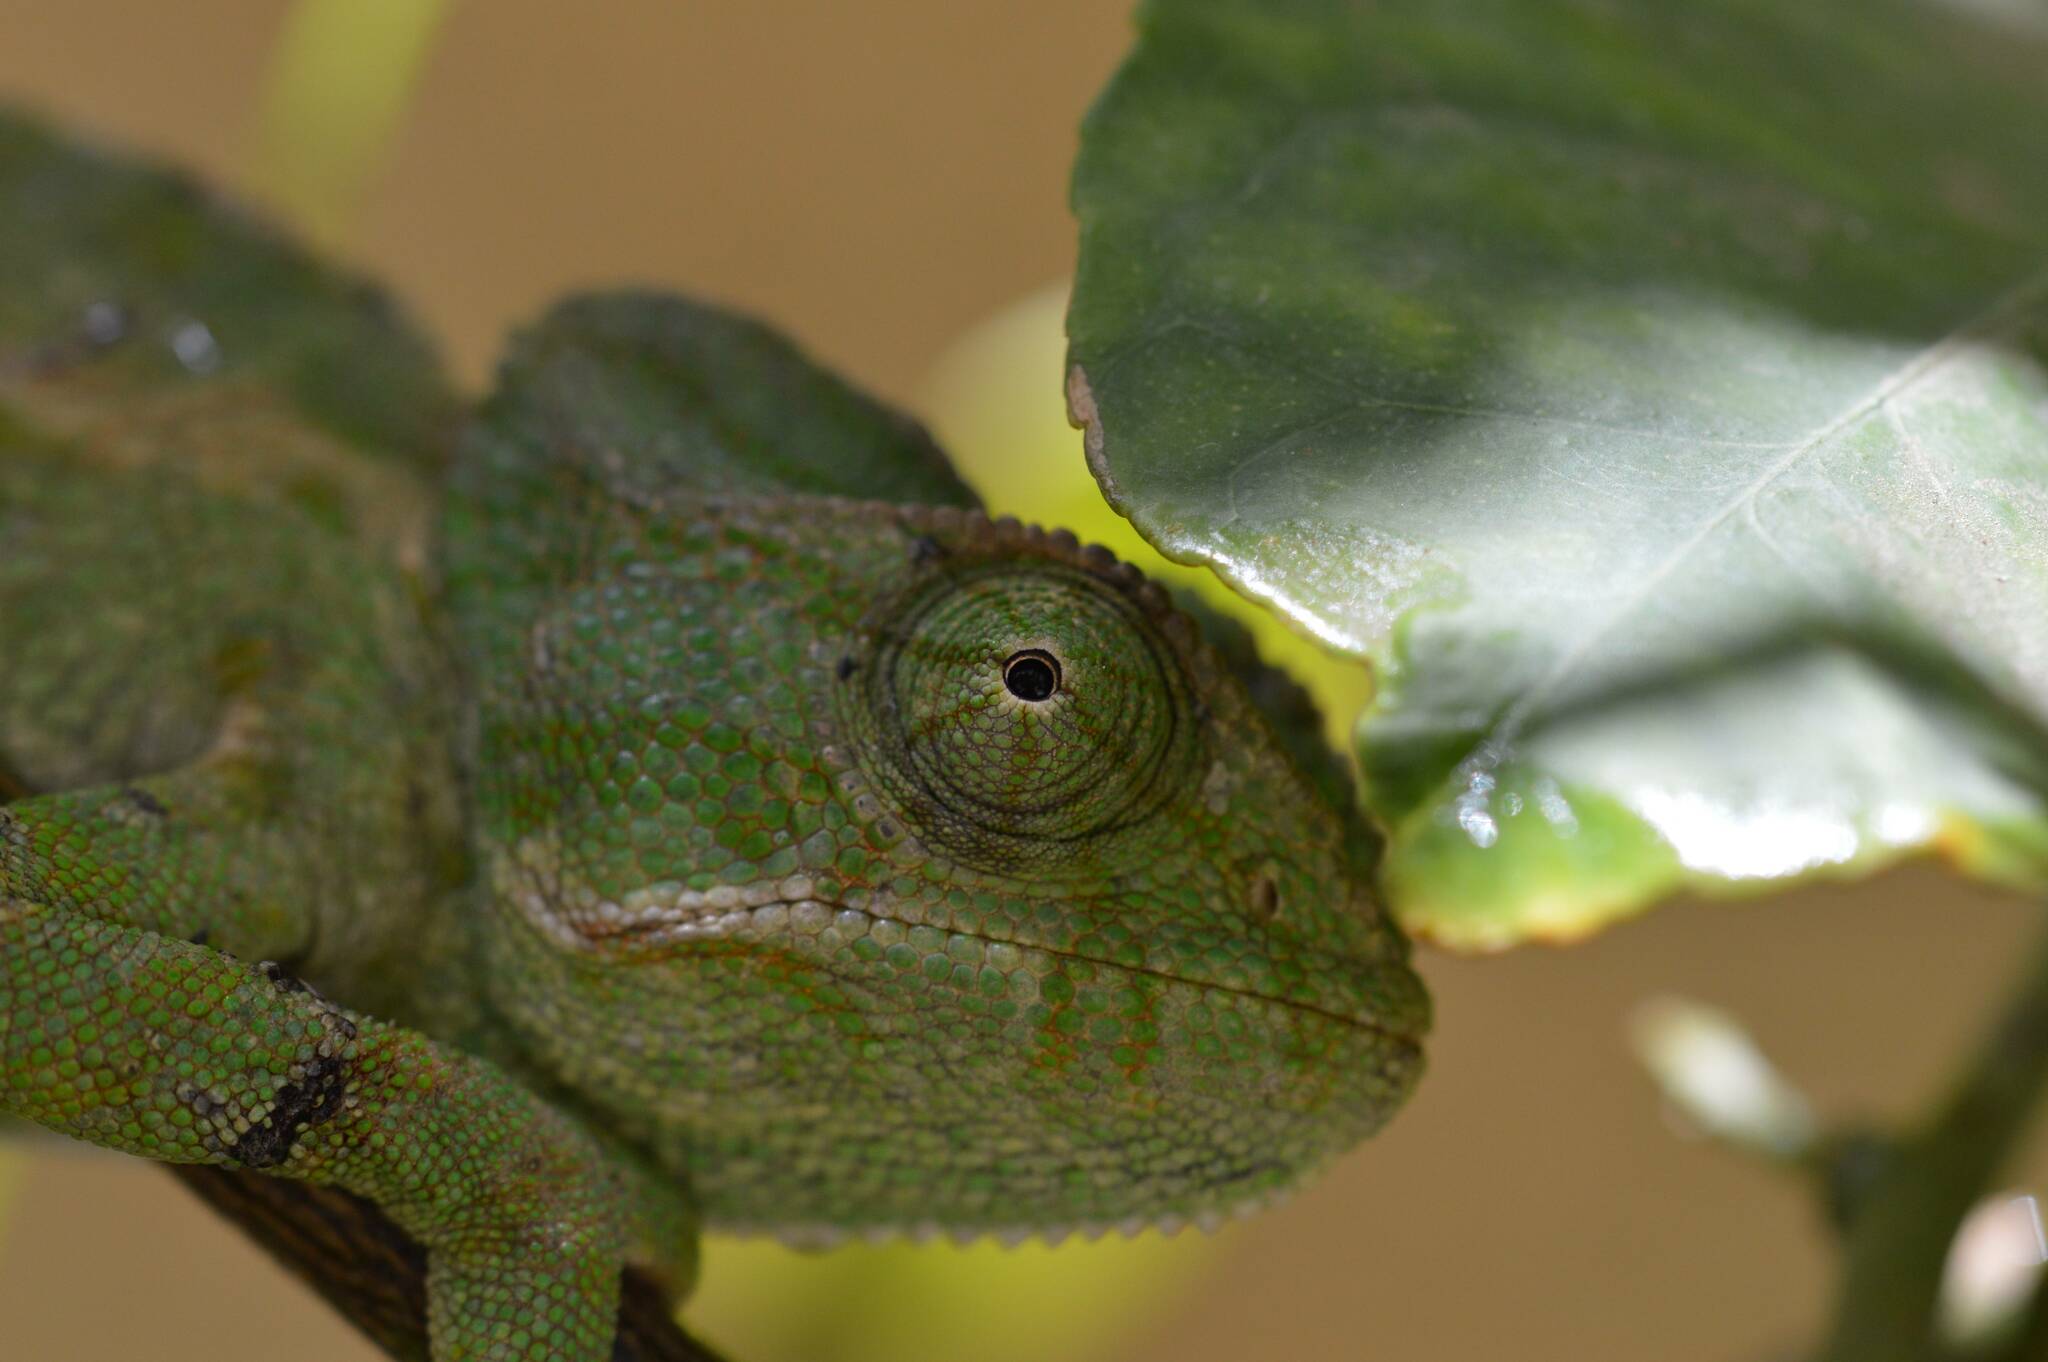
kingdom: Animalia
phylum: Chordata
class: Squamata
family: Chamaeleonidae
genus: Chamaeleo
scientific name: Chamaeleo chamaeleon
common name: Mediterranean chameleon
